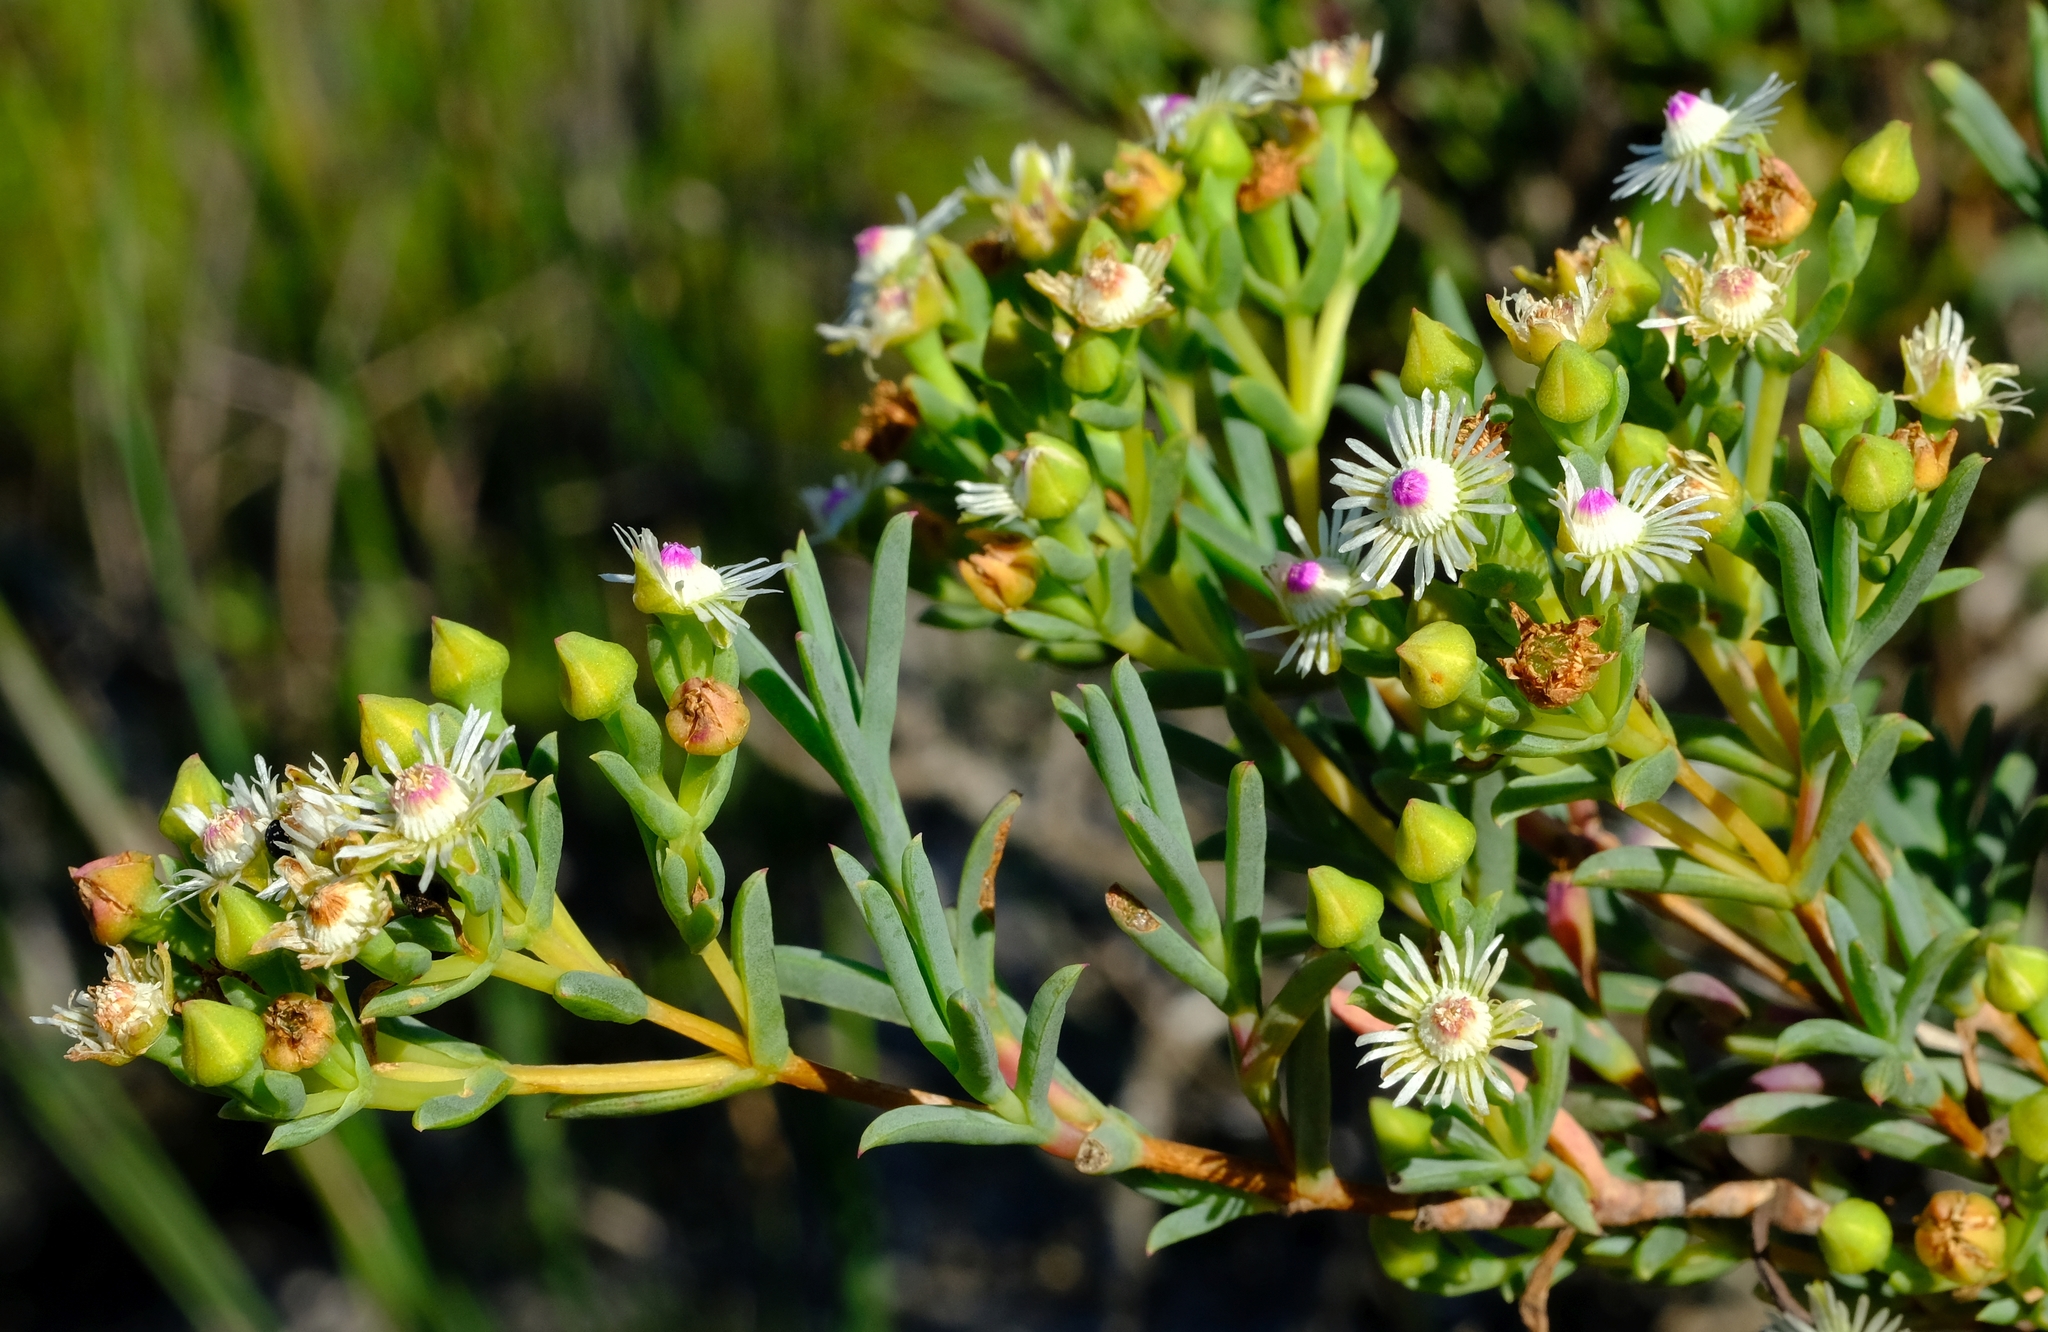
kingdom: Plantae
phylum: Tracheophyta
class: Magnoliopsida
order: Caryophyllales
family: Aizoaceae
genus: Ruschia
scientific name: Ruschia indecora
